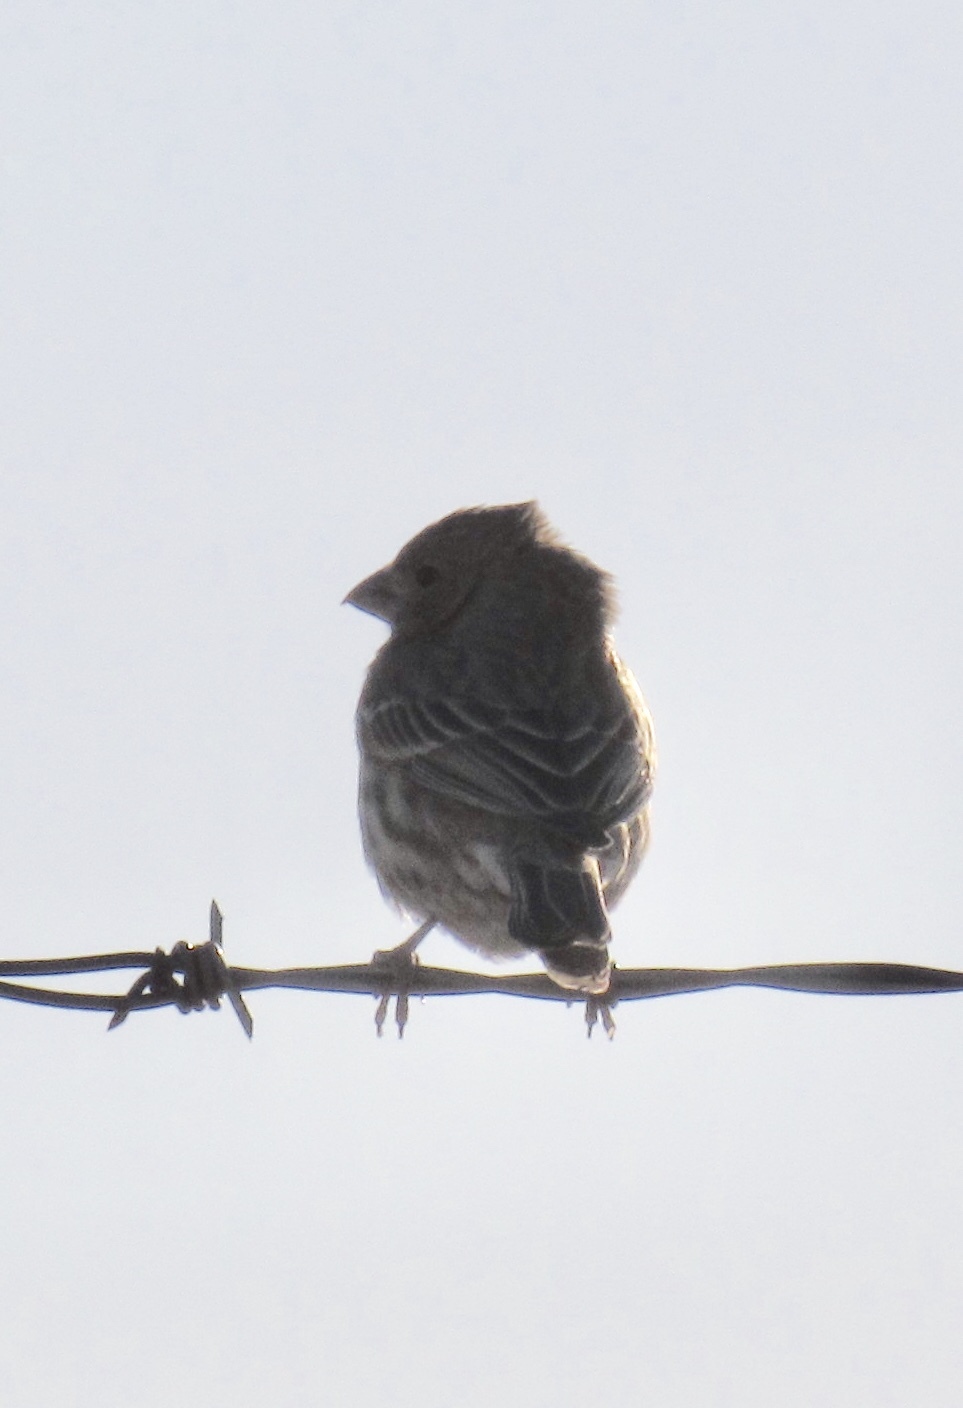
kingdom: Animalia
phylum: Chordata
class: Aves
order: Passeriformes
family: Fringillidae
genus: Haemorhous
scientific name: Haemorhous mexicanus
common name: House finch
